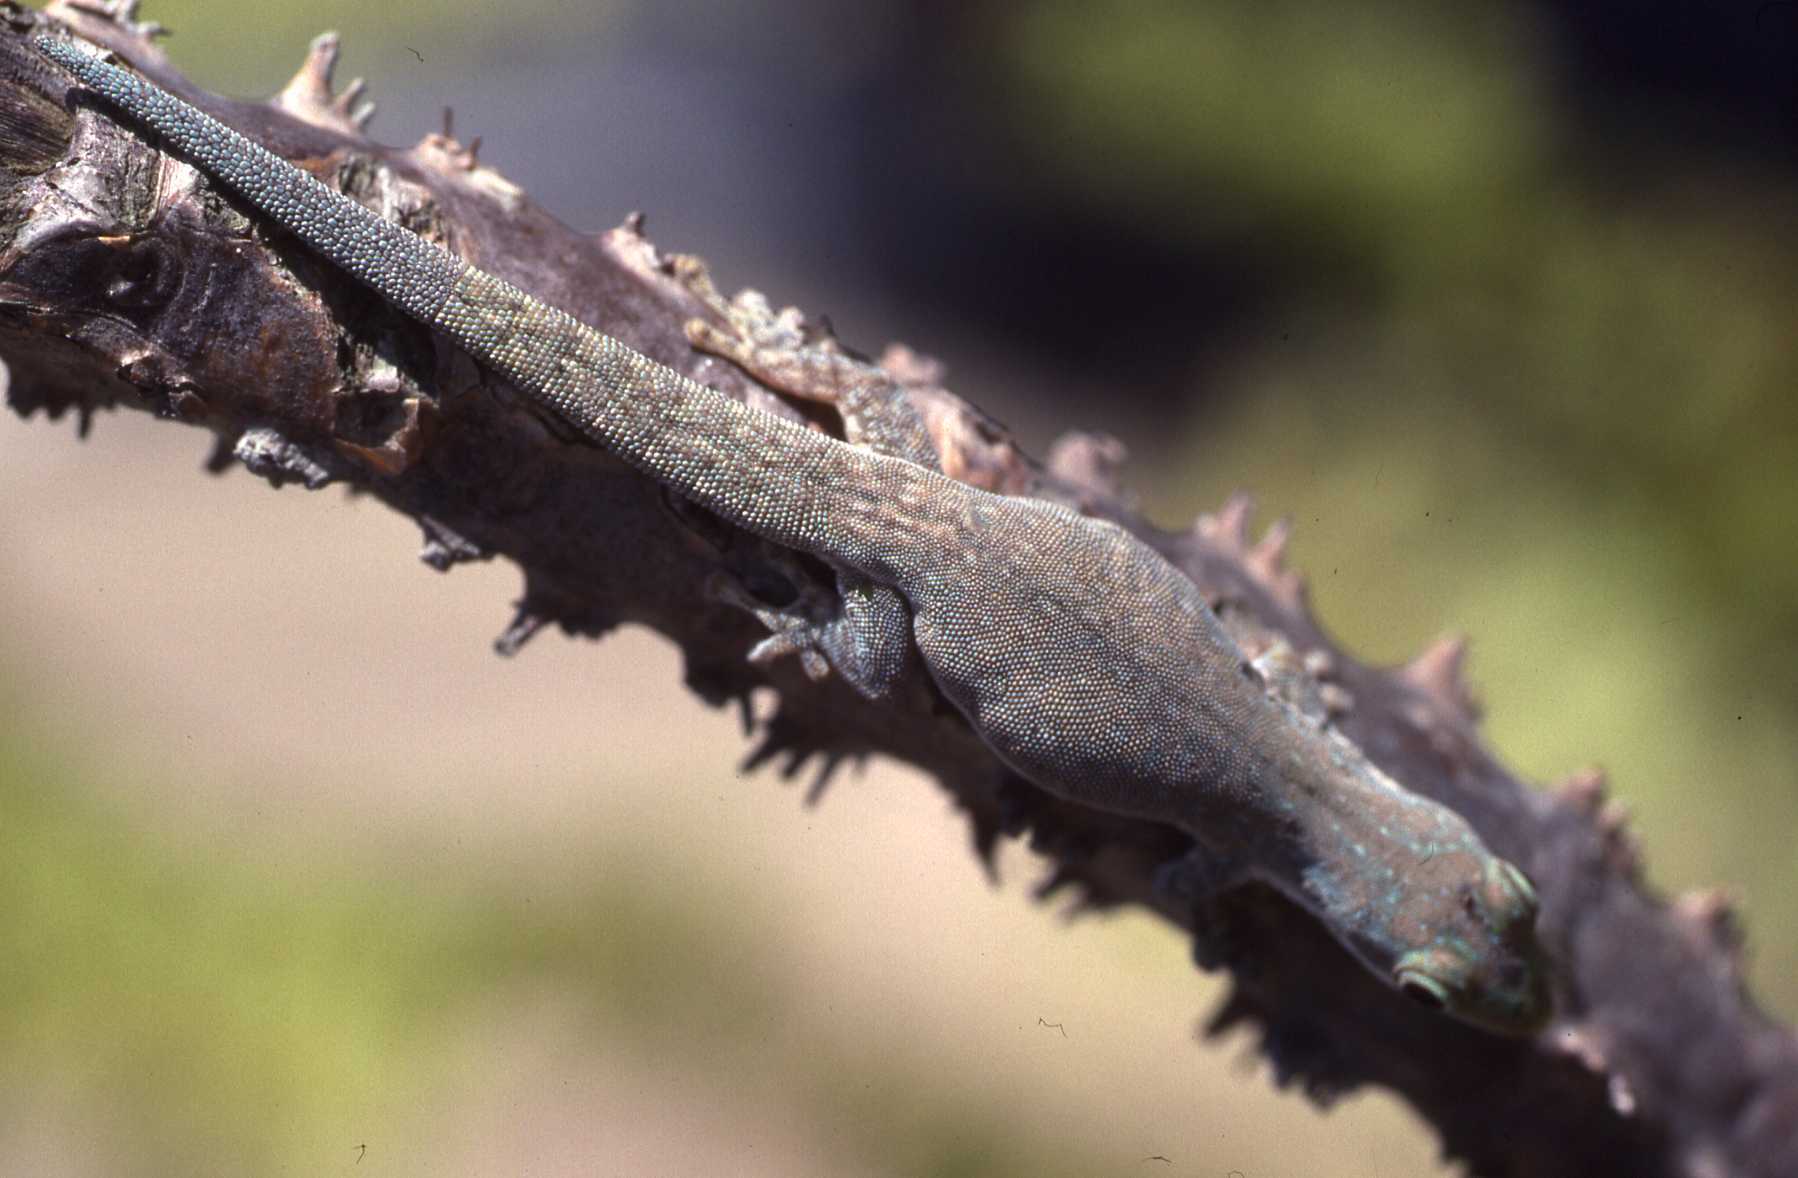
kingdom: Animalia
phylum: Chordata
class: Squamata
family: Gekkonidae
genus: Phelsuma
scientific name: Phelsuma modesta
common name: Modest day gecko
